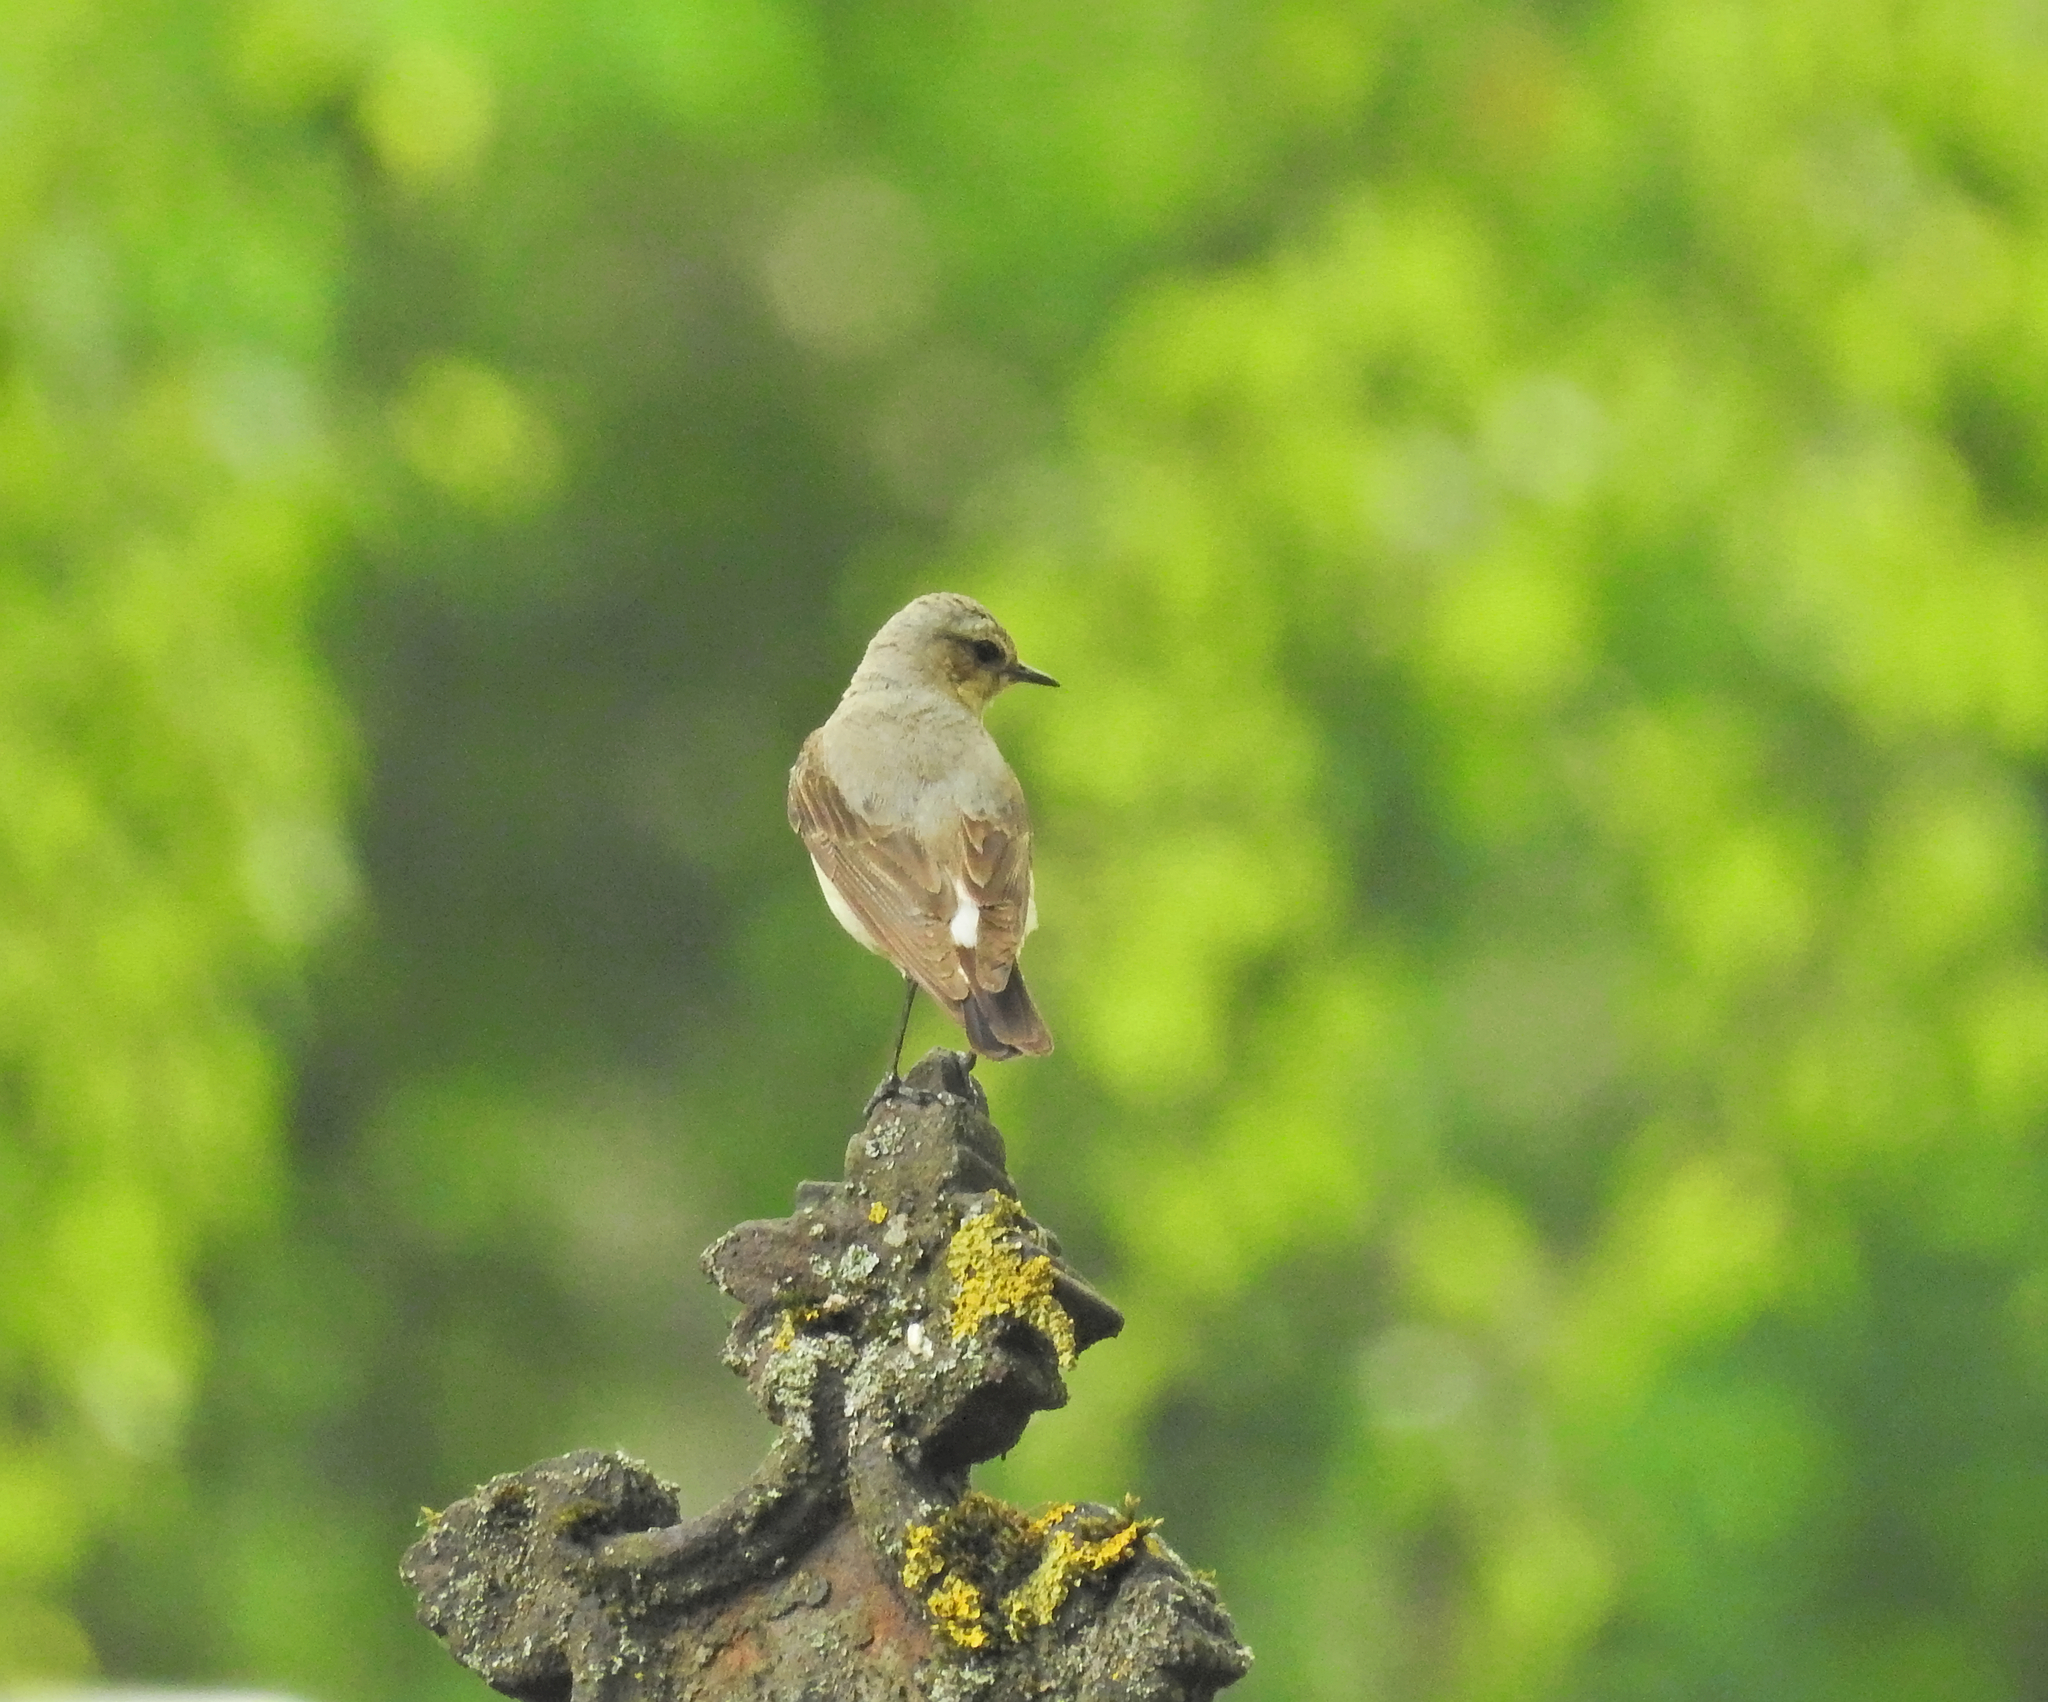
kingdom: Animalia
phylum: Chordata
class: Aves
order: Passeriformes
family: Muscicapidae
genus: Oenanthe
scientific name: Oenanthe oenanthe
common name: Northern wheatear
